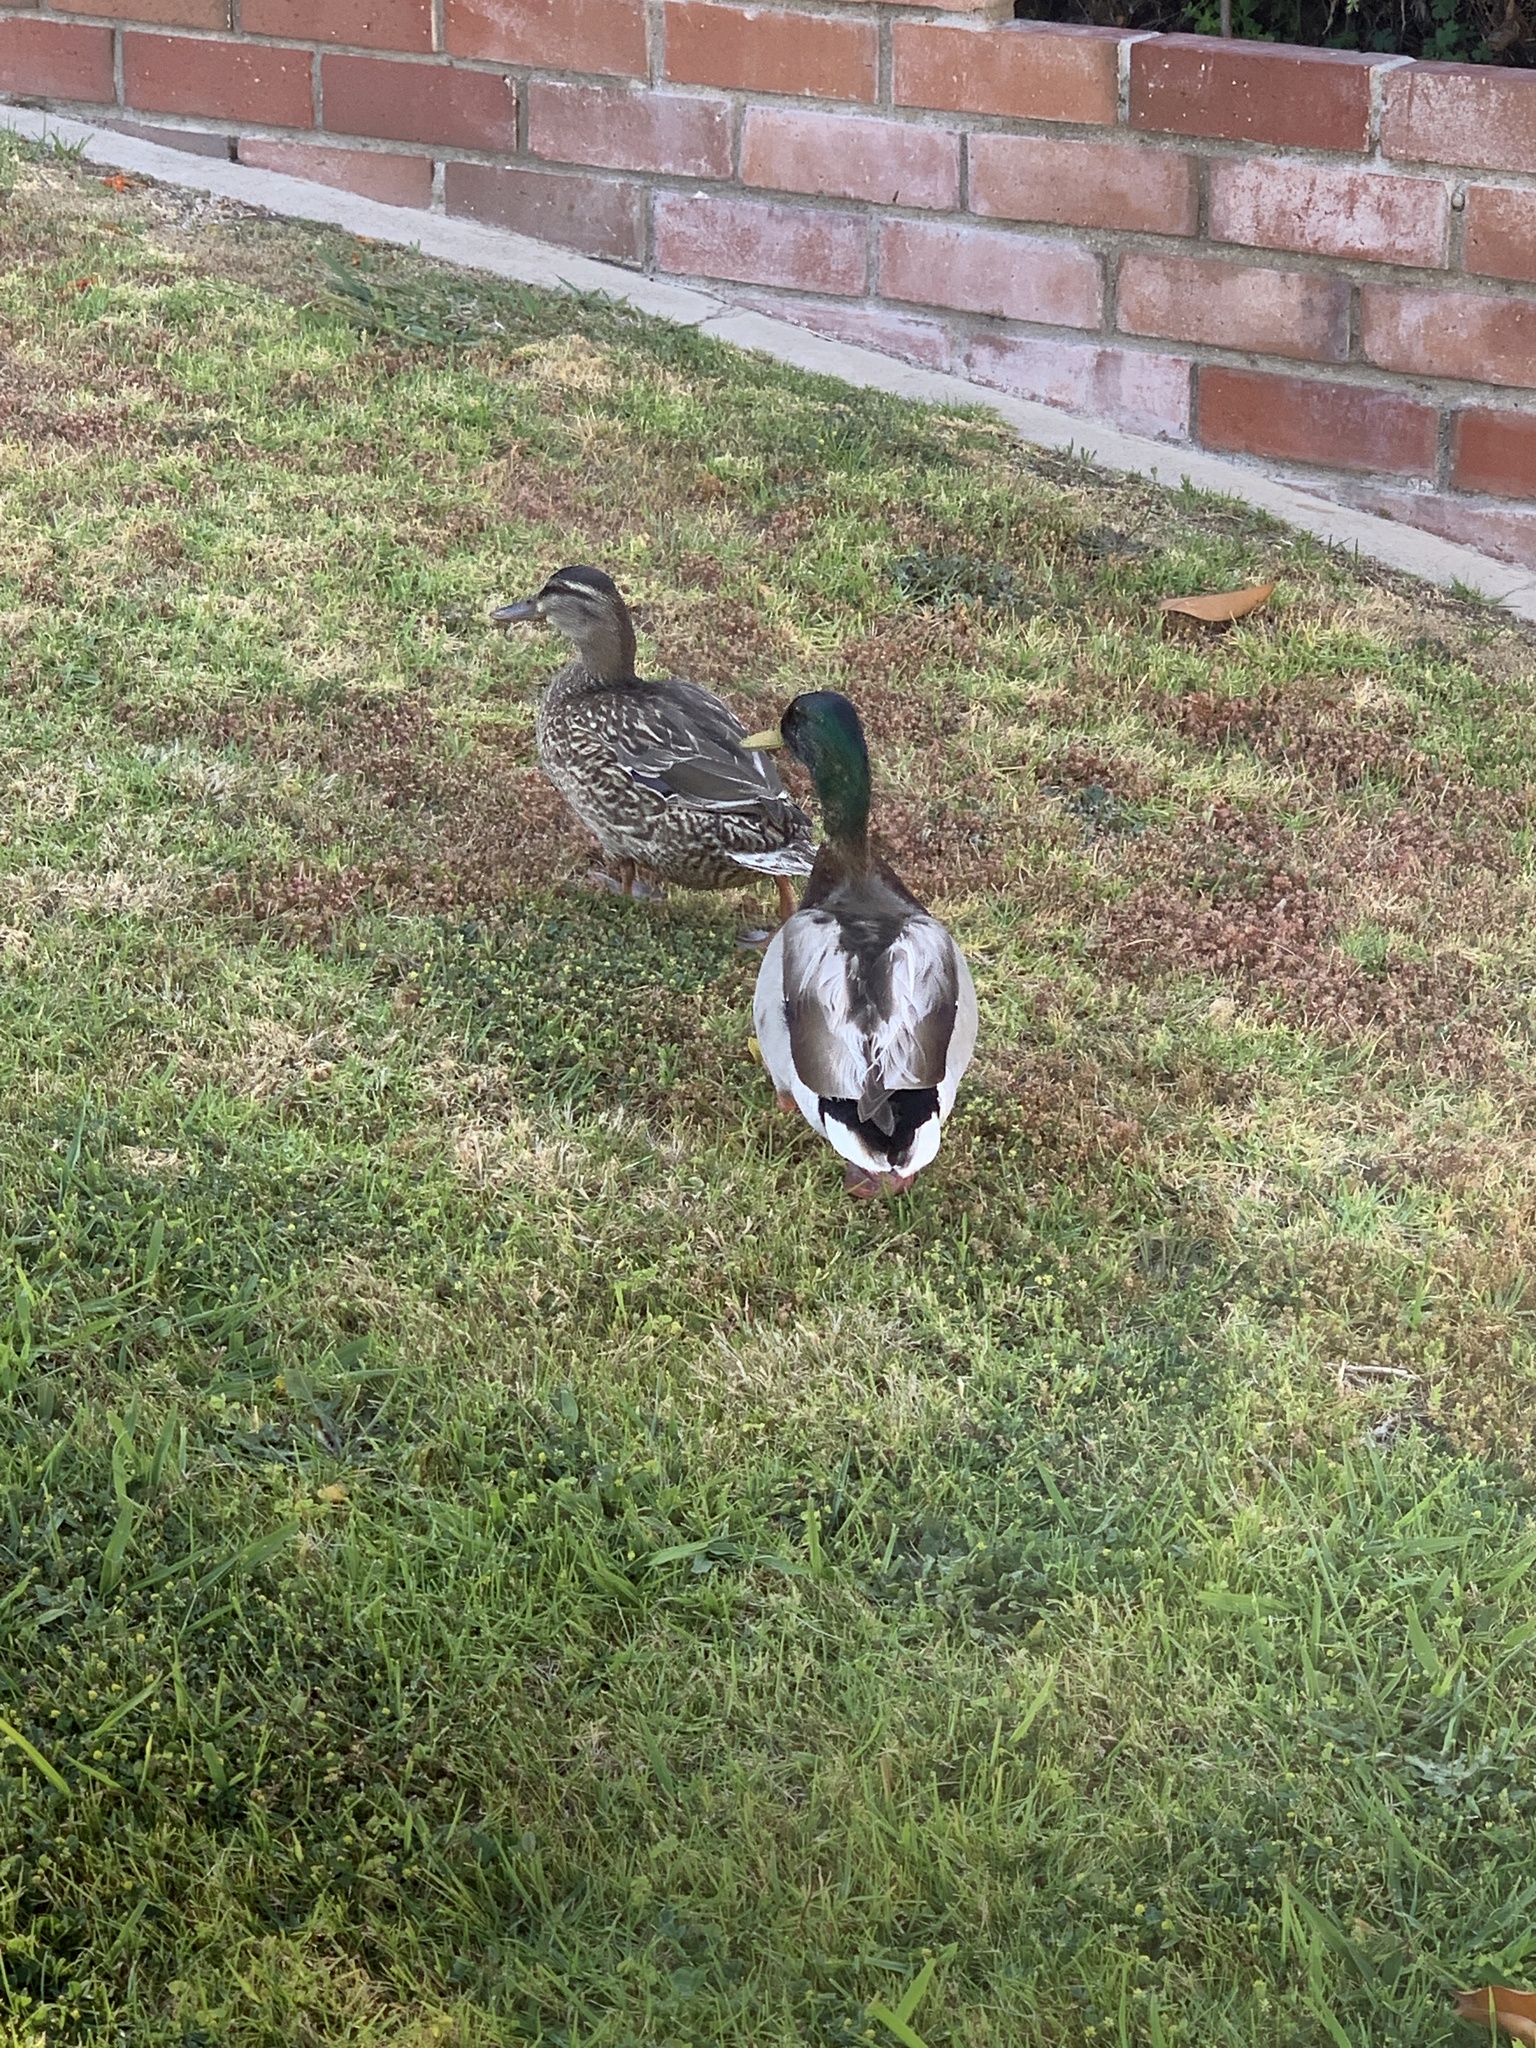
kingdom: Animalia
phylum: Chordata
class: Aves
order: Anseriformes
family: Anatidae
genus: Anas
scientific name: Anas platyrhynchos
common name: Mallard
